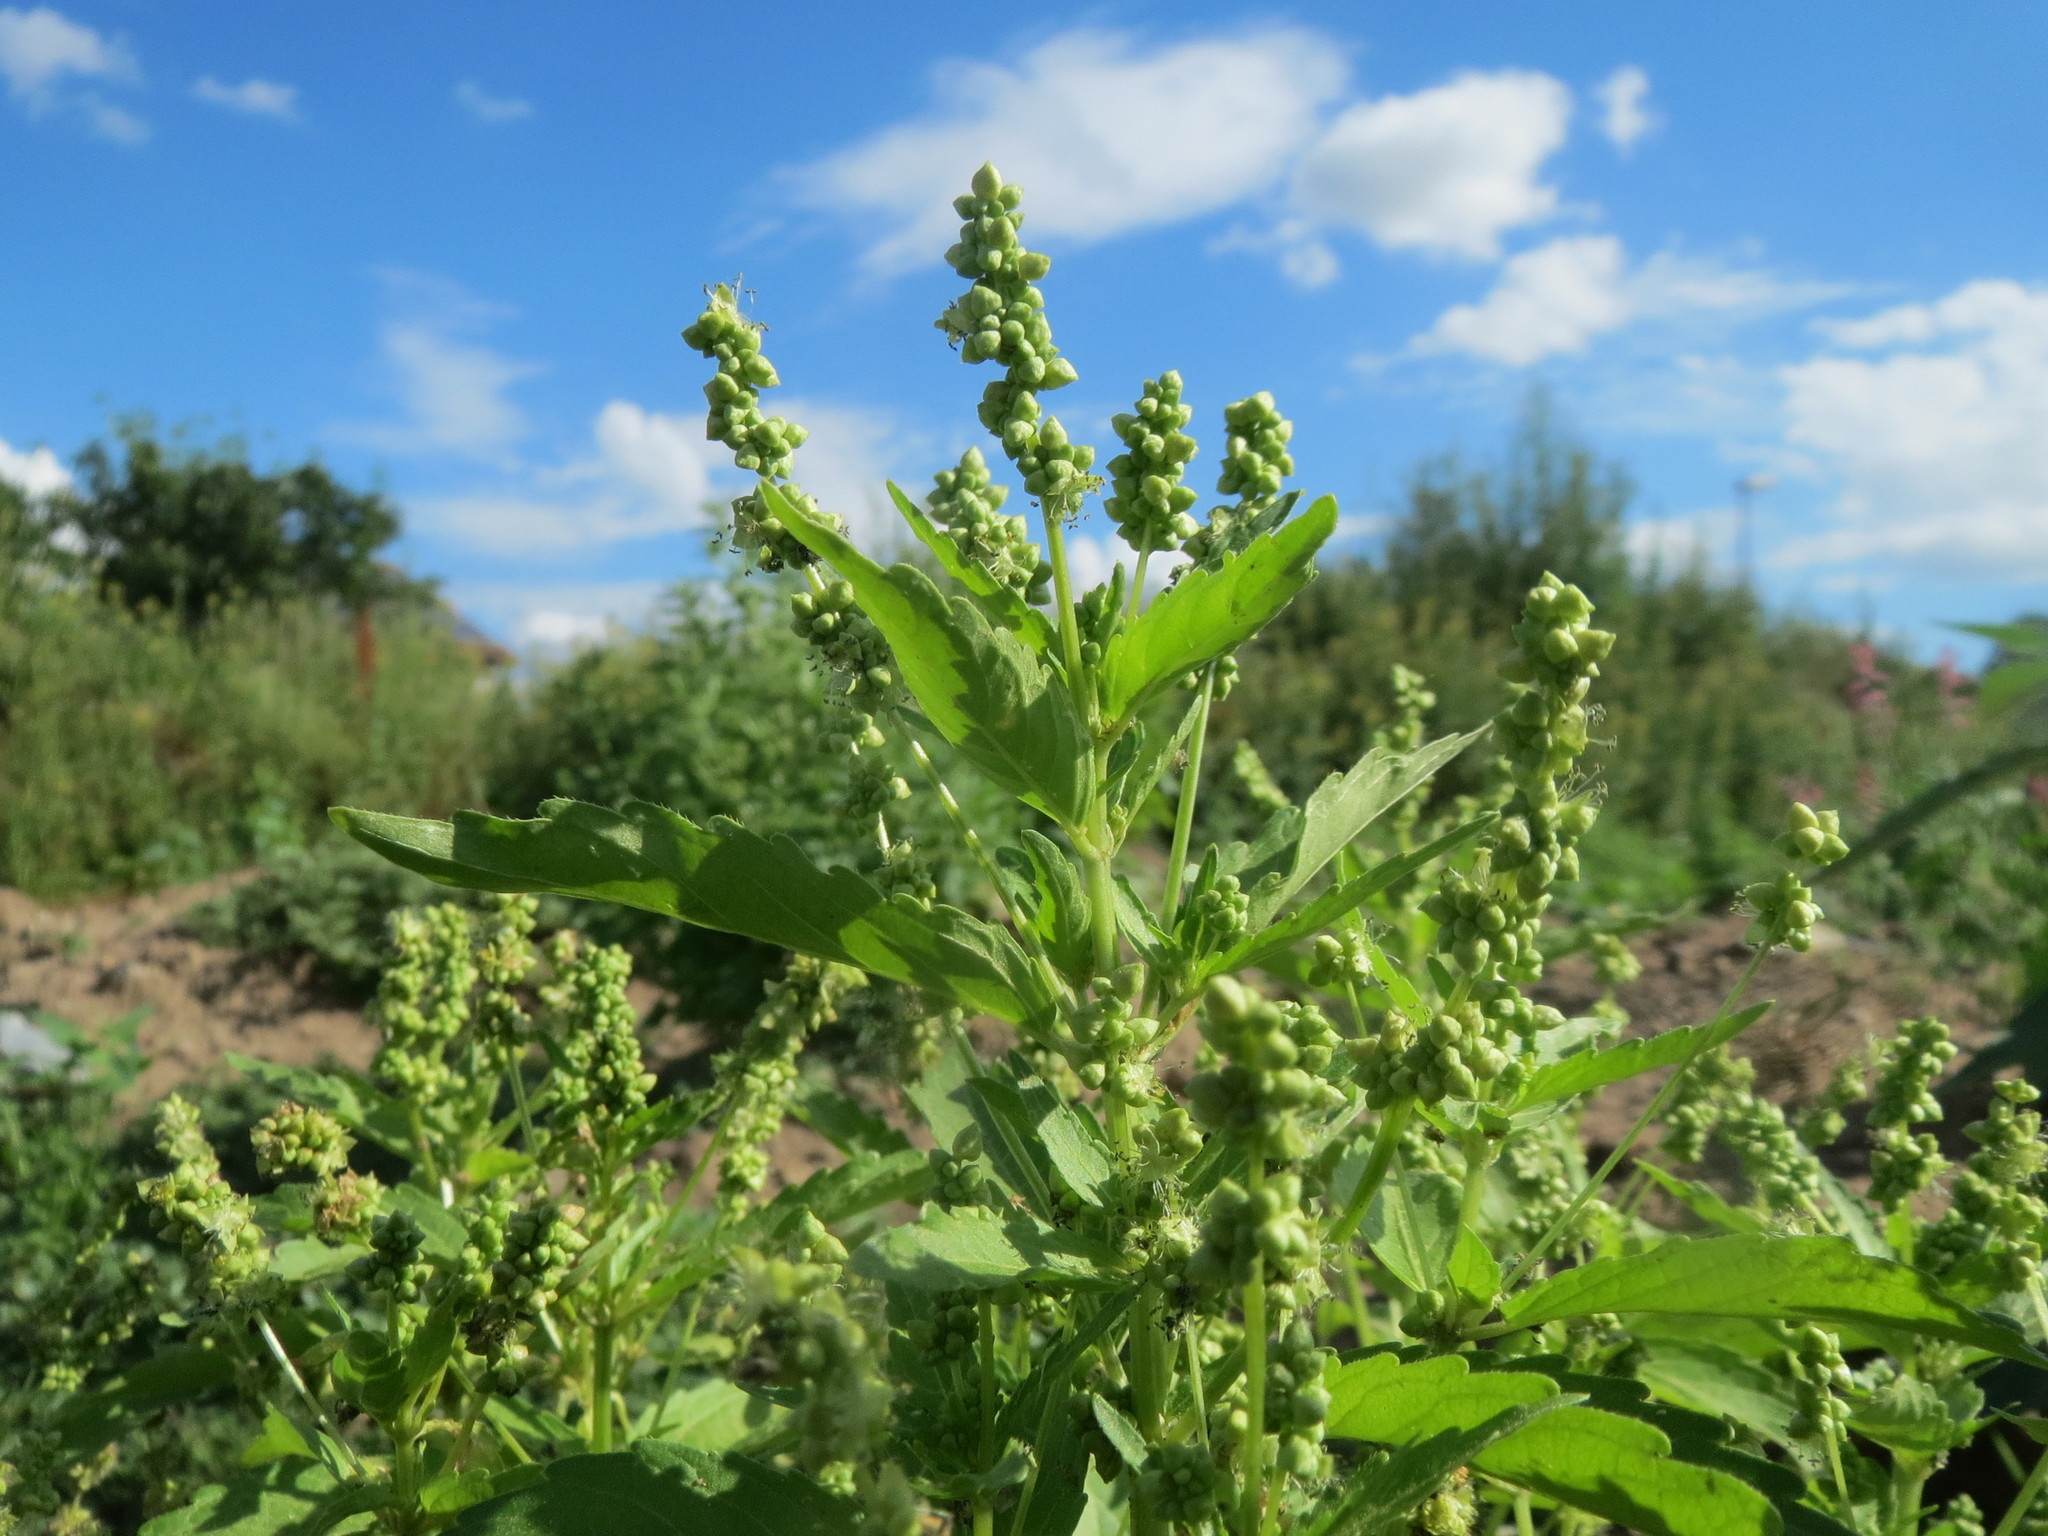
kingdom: Plantae
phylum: Tracheophyta
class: Magnoliopsida
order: Malpighiales
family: Euphorbiaceae
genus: Mercurialis
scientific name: Mercurialis annua
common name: Annual mercury
